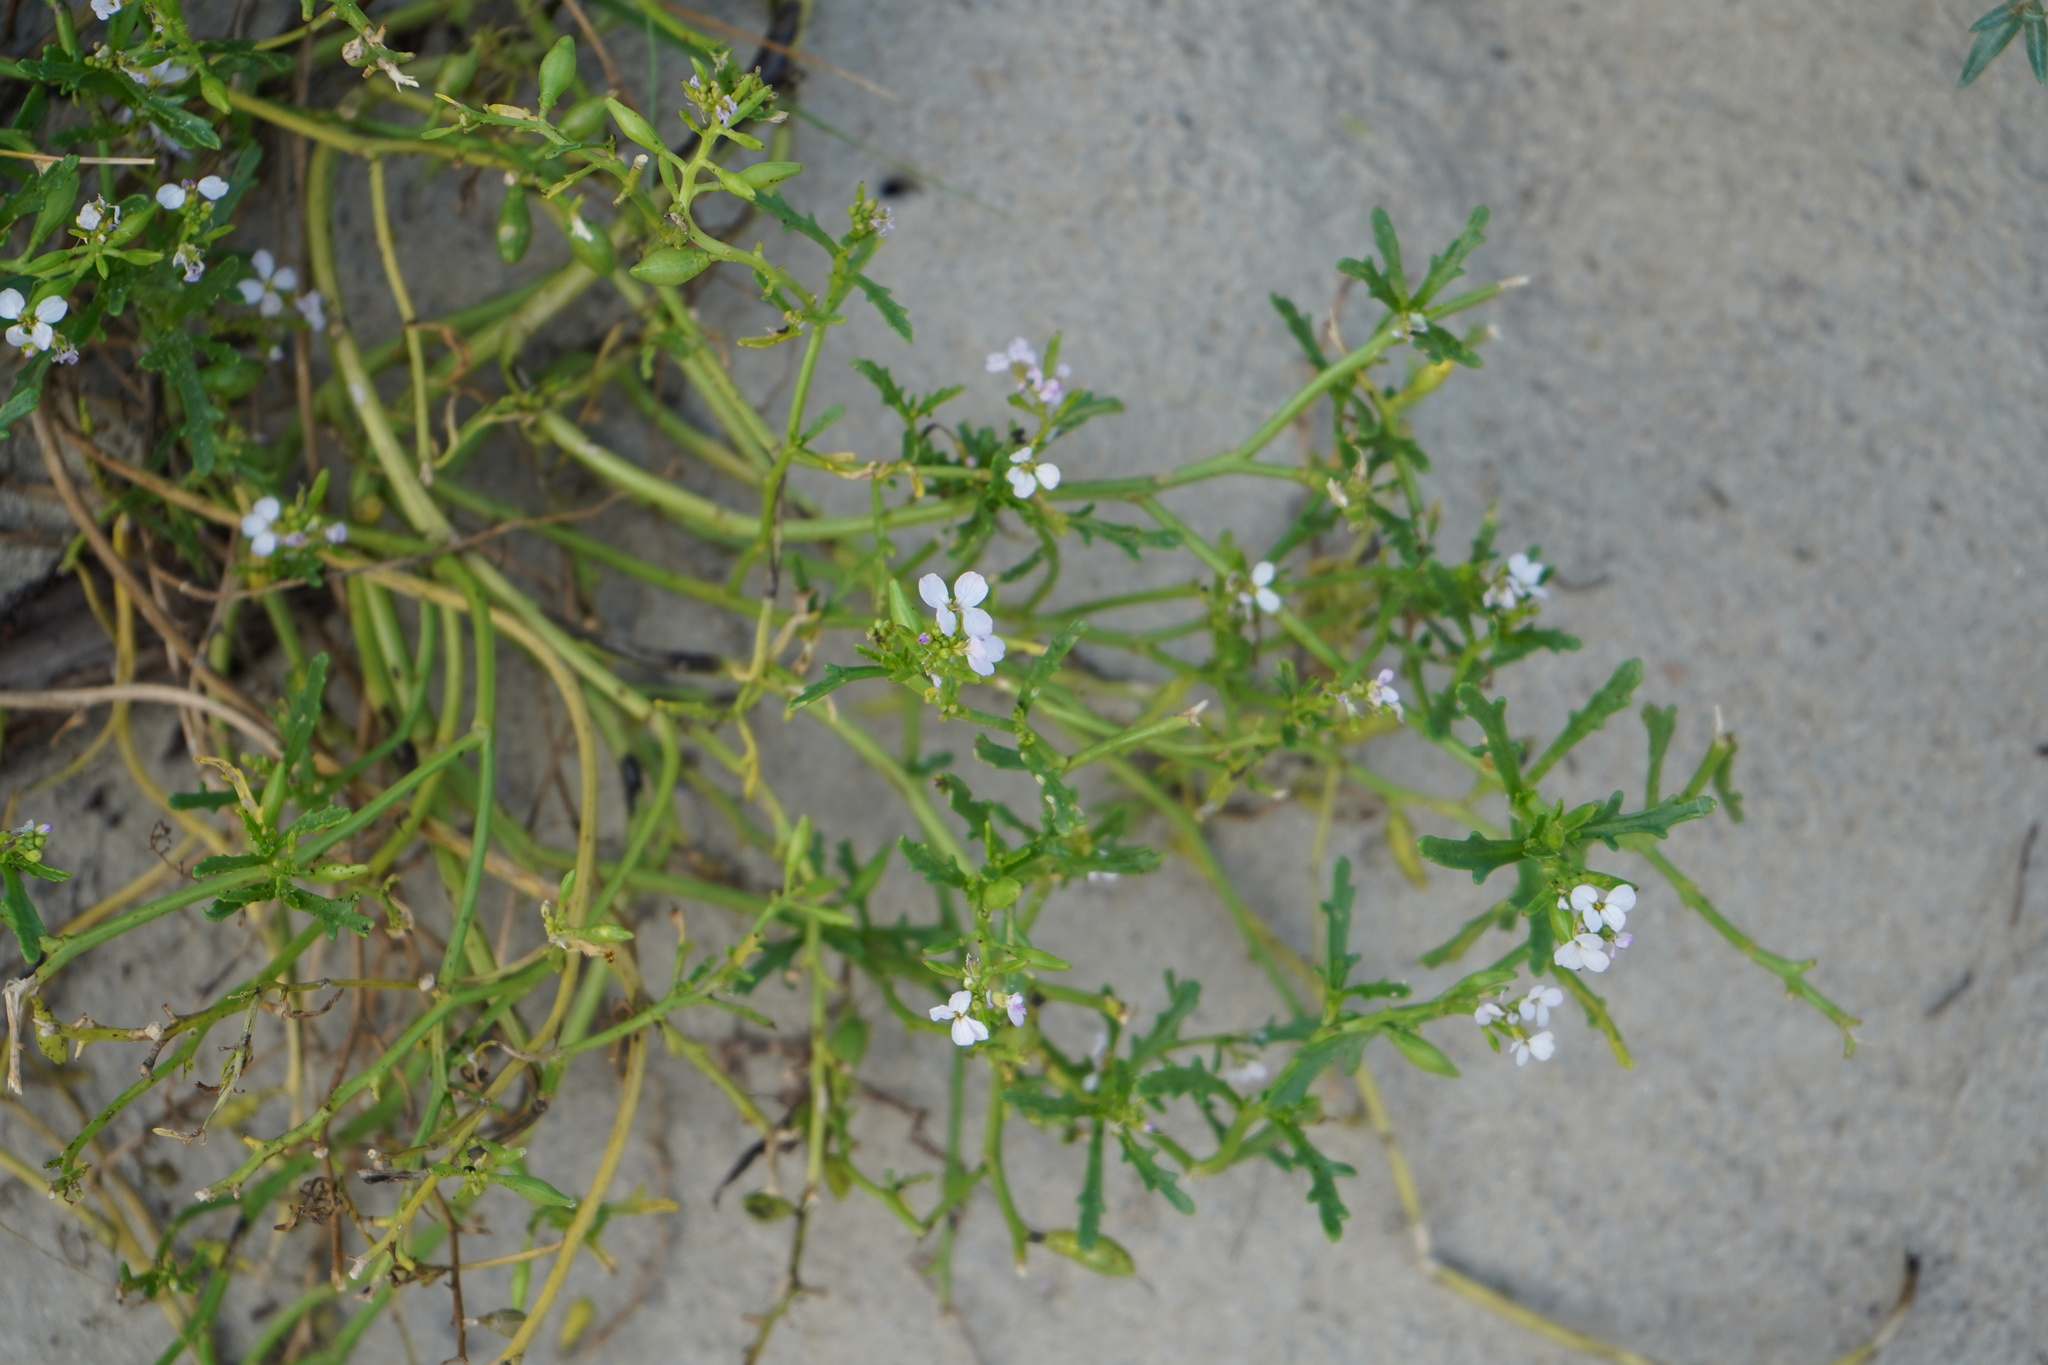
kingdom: Plantae
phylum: Tracheophyta
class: Magnoliopsida
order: Brassicales
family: Brassicaceae
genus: Cakile
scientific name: Cakile maritima
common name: Sea rocket
